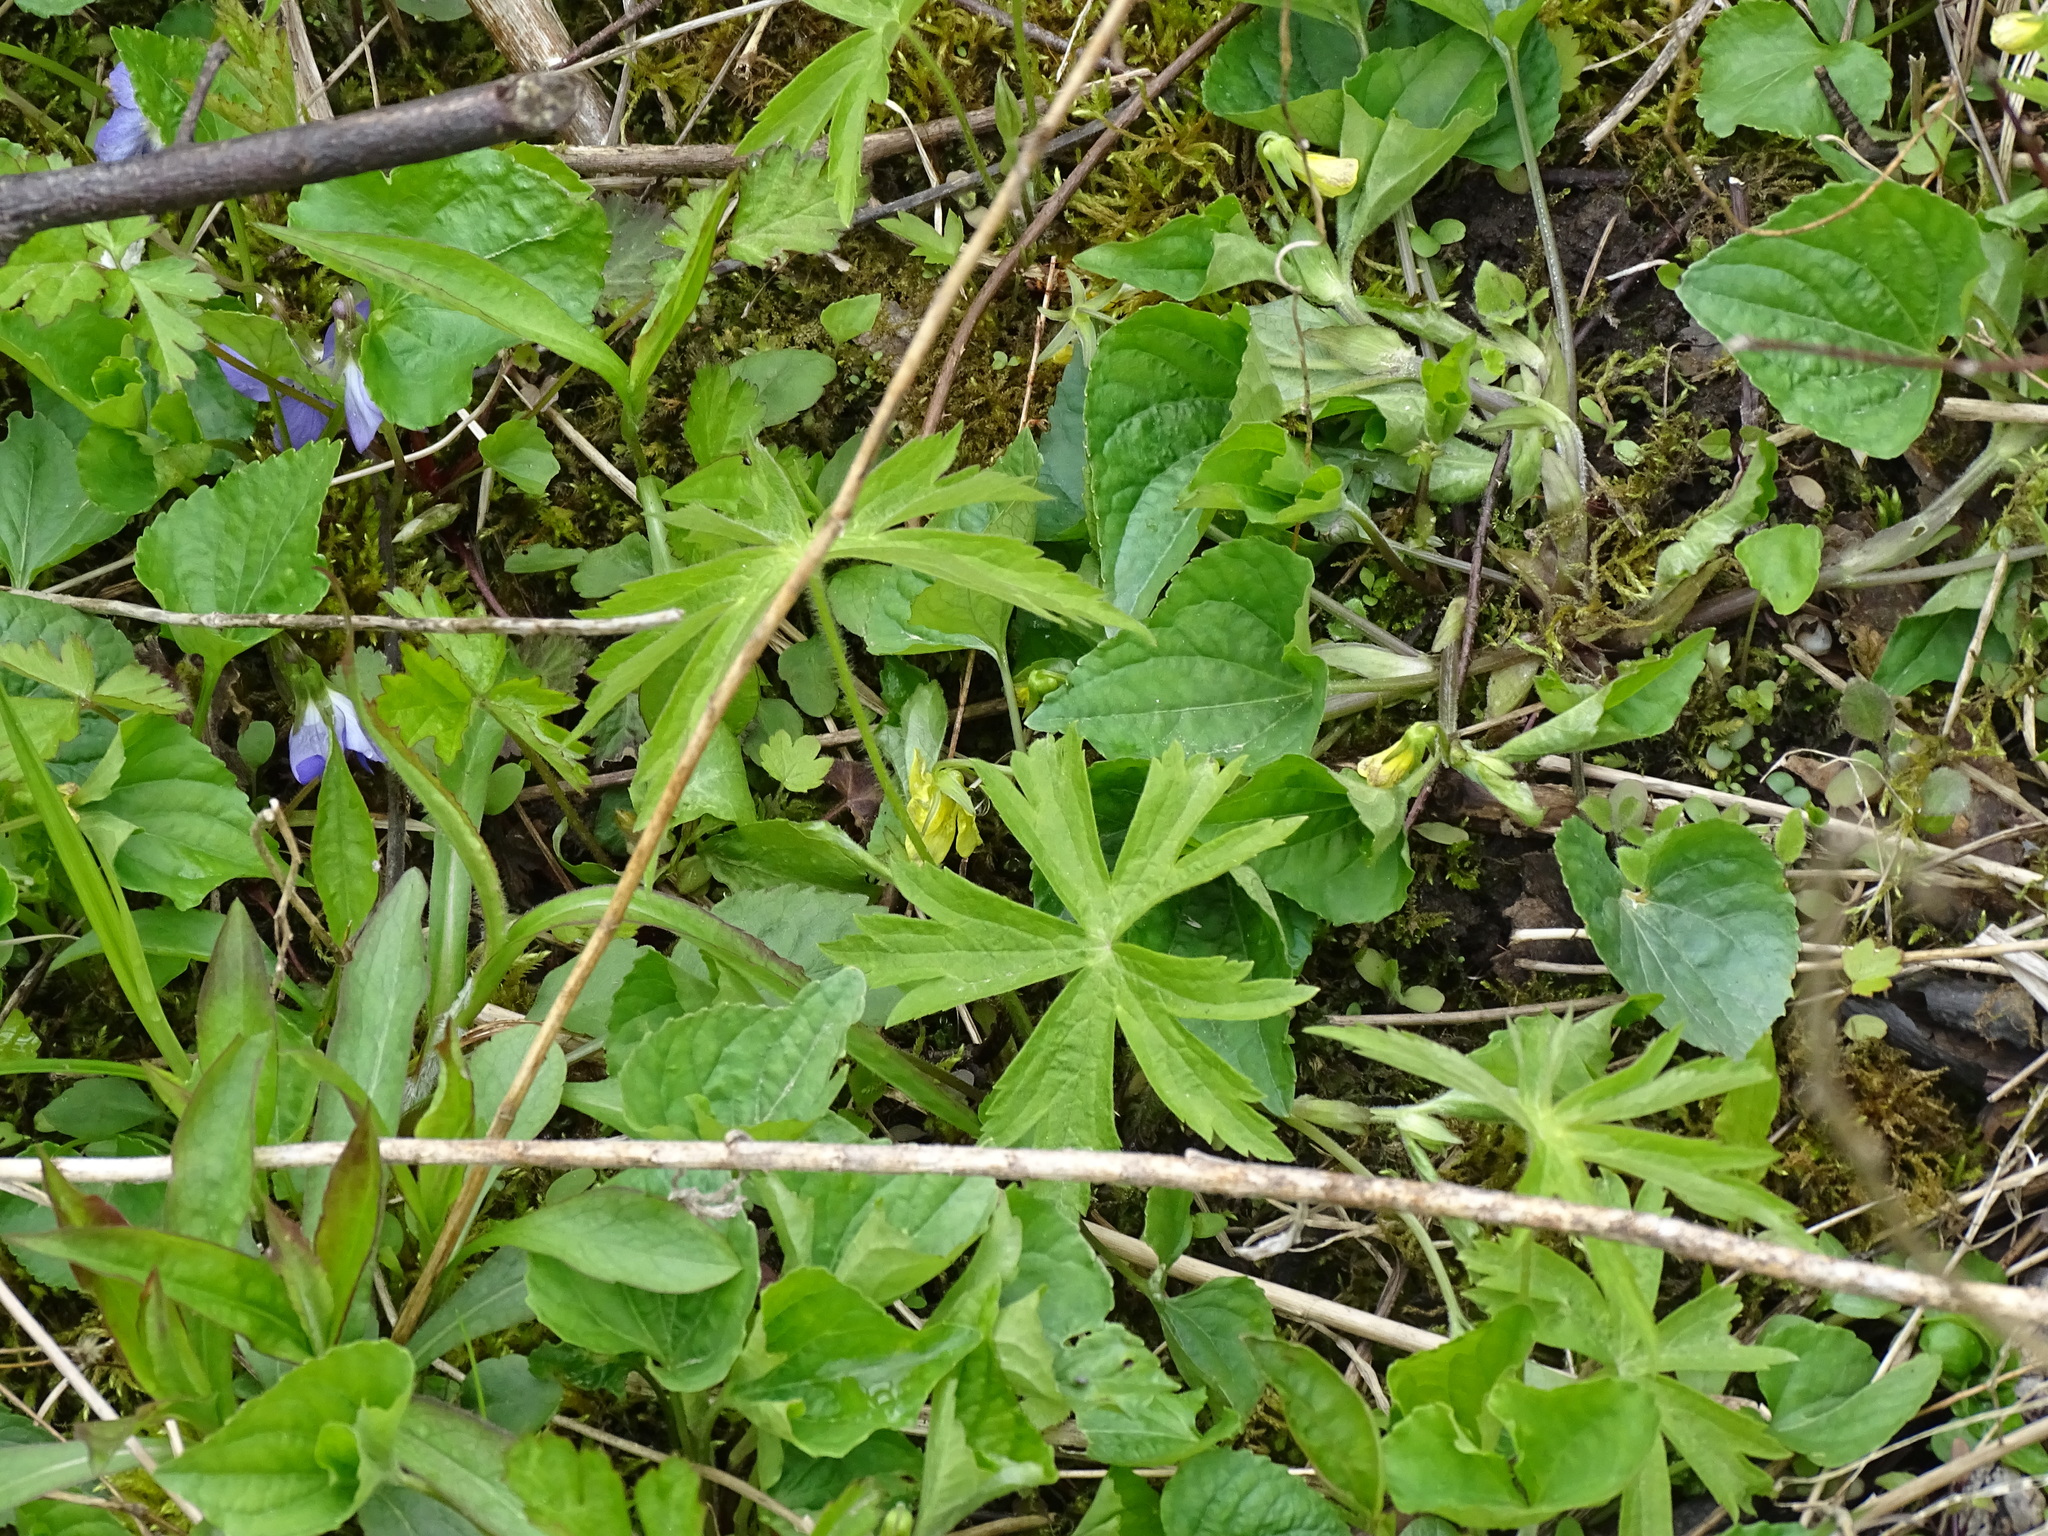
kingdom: Plantae
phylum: Tracheophyta
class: Magnoliopsida
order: Geraniales
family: Geraniaceae
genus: Geranium
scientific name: Geranium maculatum
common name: Spotted geranium
